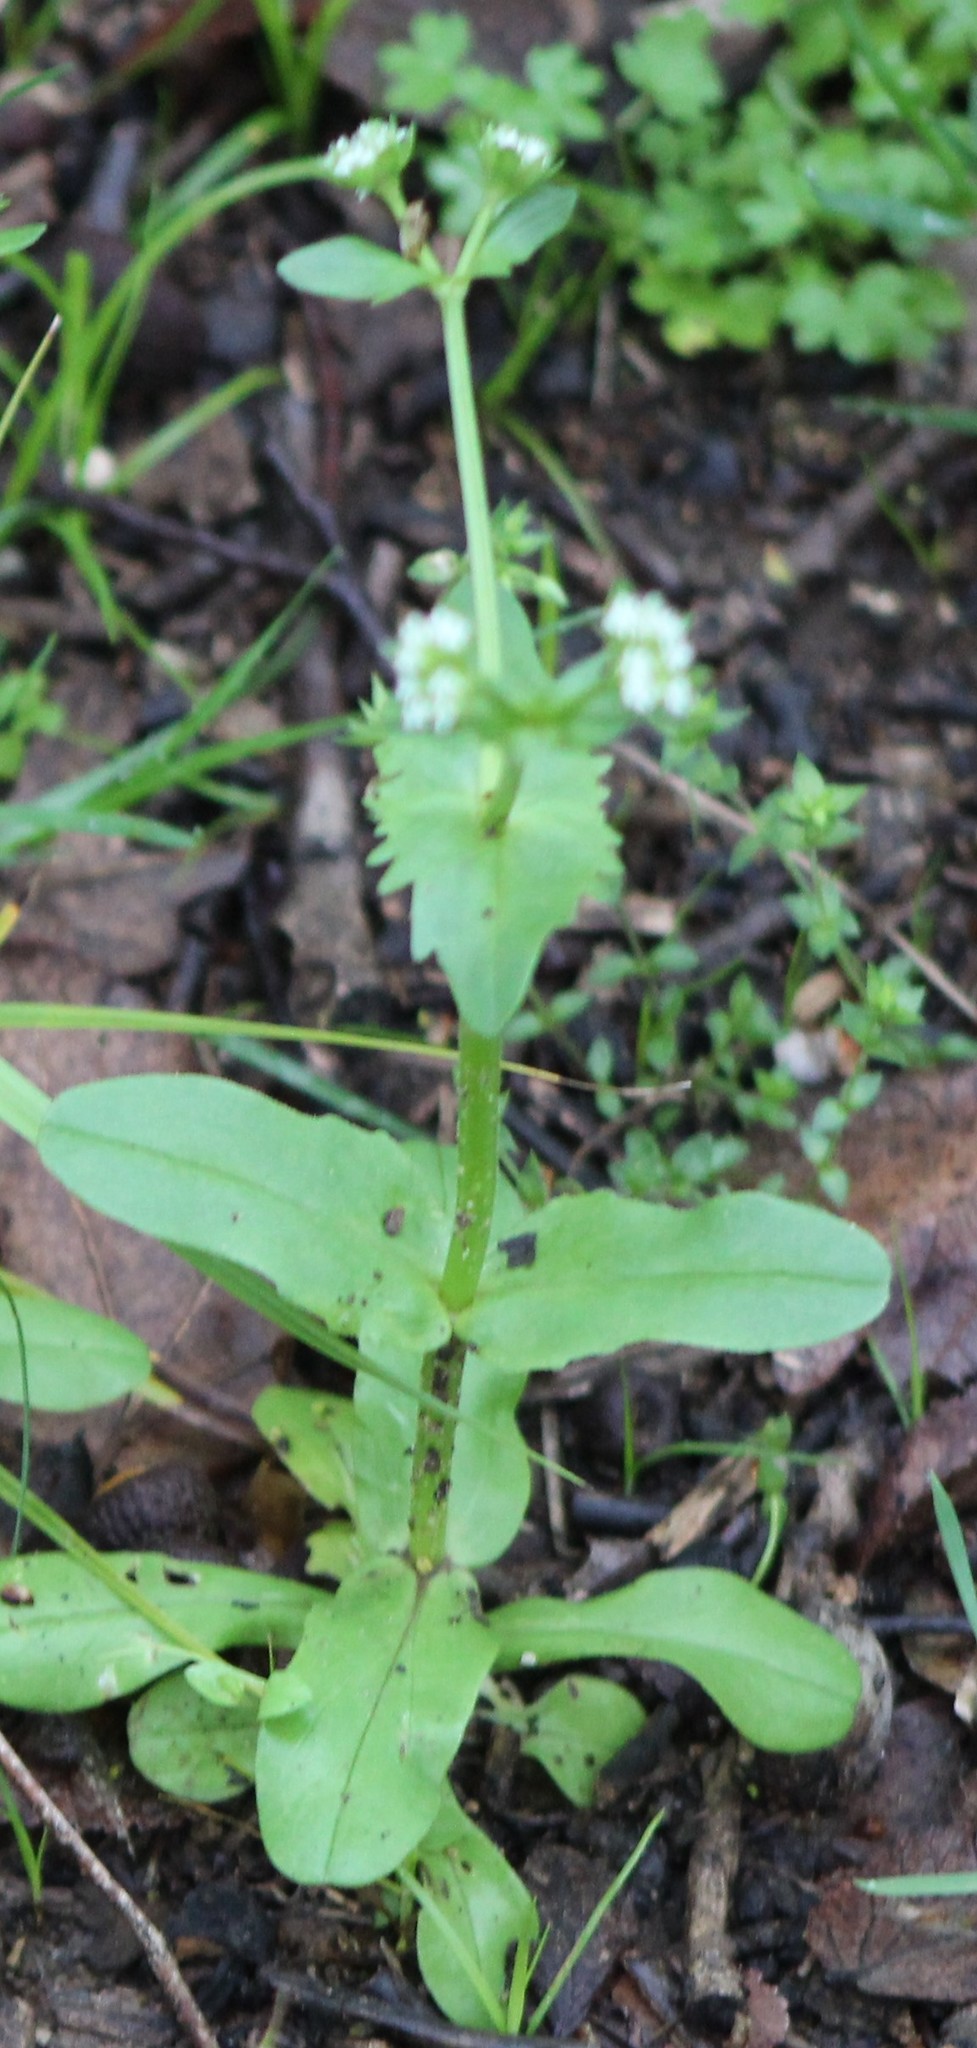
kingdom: Plantae
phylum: Tracheophyta
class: Magnoliopsida
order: Dipsacales
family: Caprifoliaceae
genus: Valerianella
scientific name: Valerianella radiata
